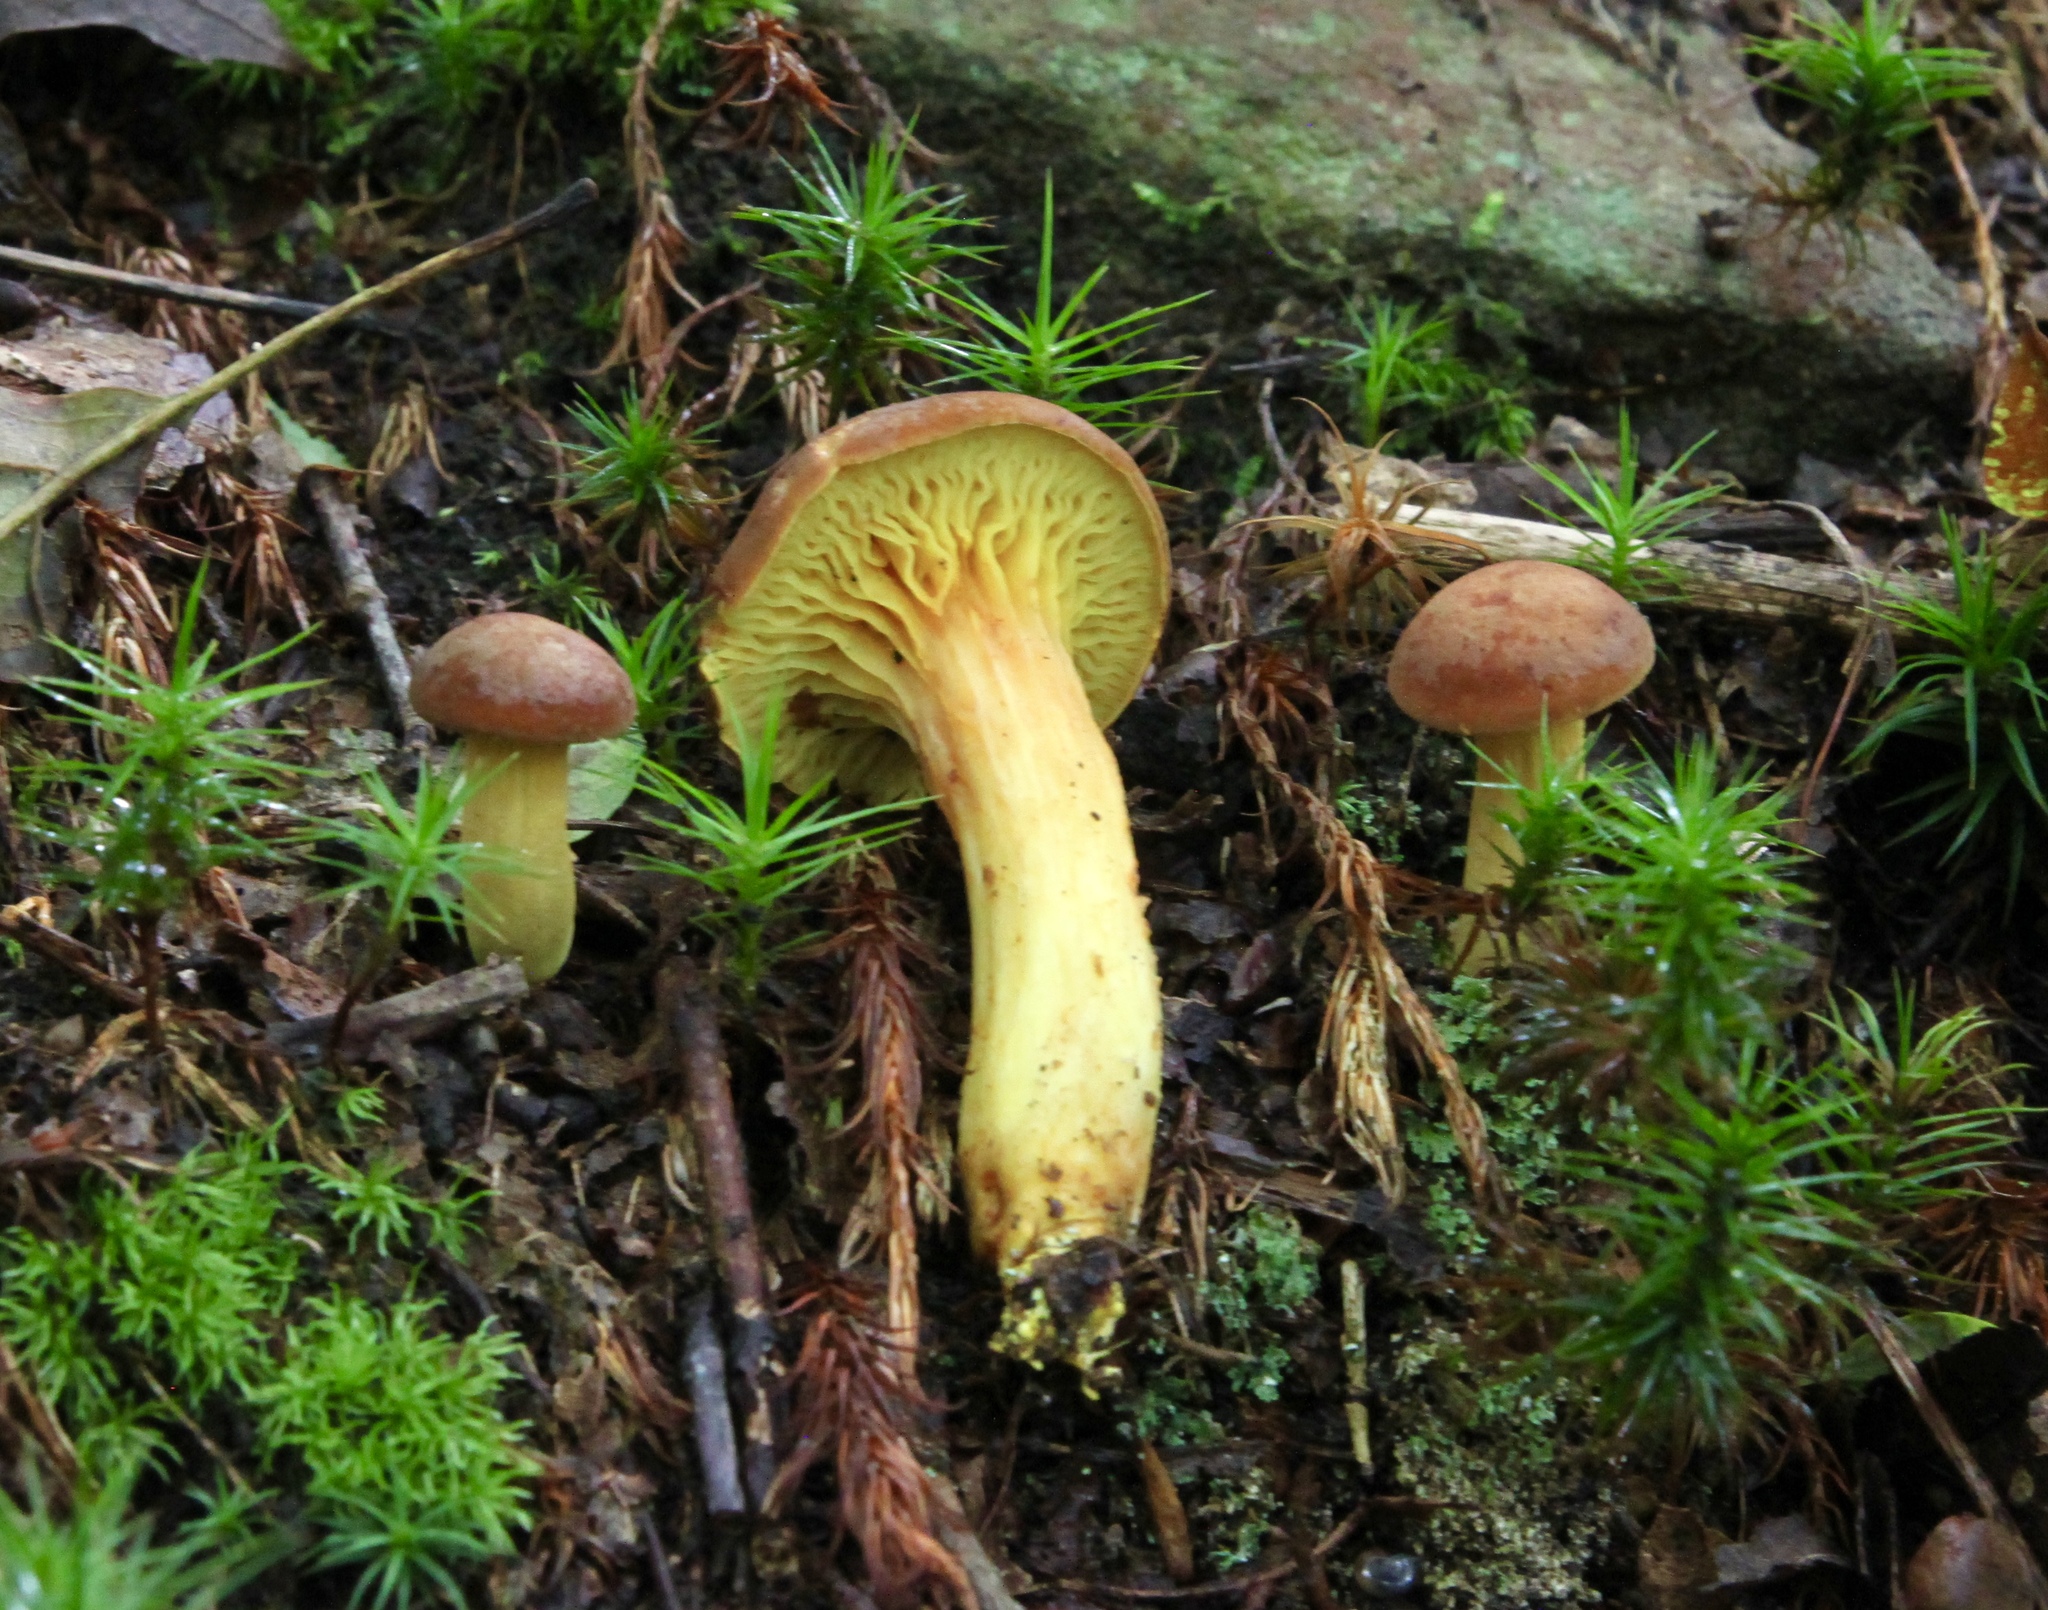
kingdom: Fungi
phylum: Basidiomycota
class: Agaricomycetes
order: Boletales
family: Boletaceae
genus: Phylloporus
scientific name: Phylloporus rhodoxanthus
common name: Golden gilled bolete
